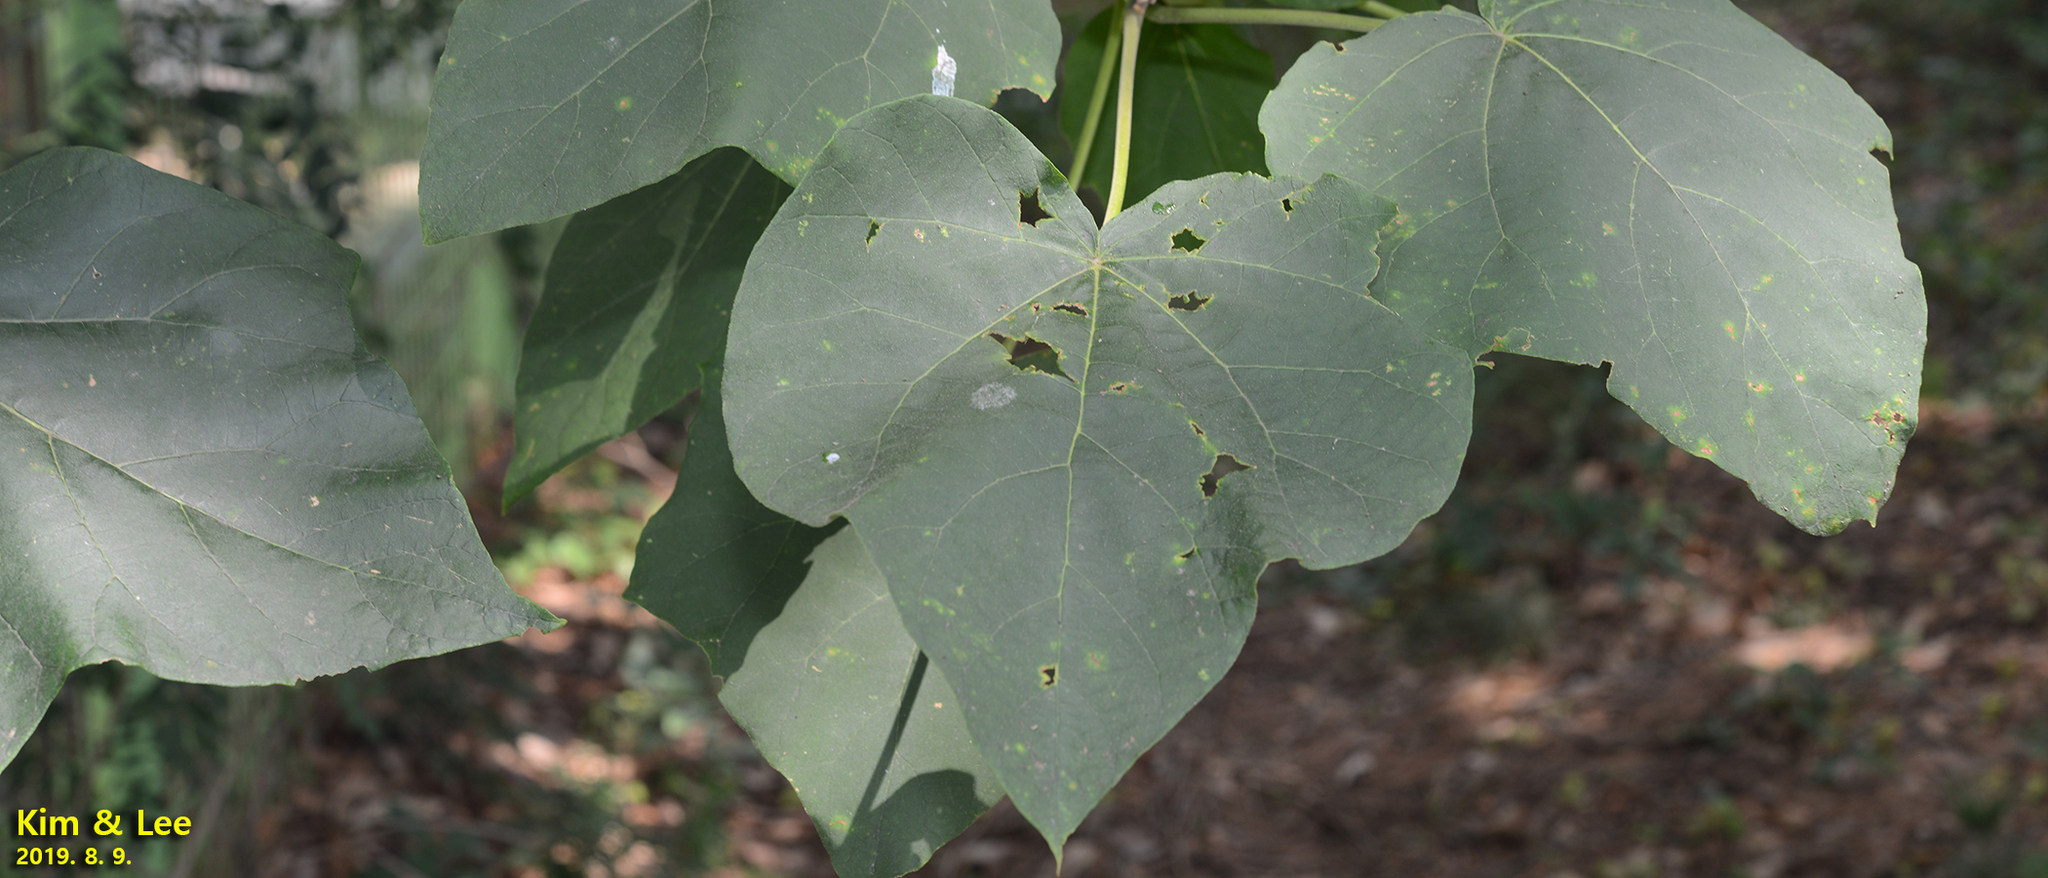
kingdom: Plantae
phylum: Tracheophyta
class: Magnoliopsida
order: Lamiales
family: Paulowniaceae
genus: Paulownia
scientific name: Paulownia tomentosa
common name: Foxglove-tree
